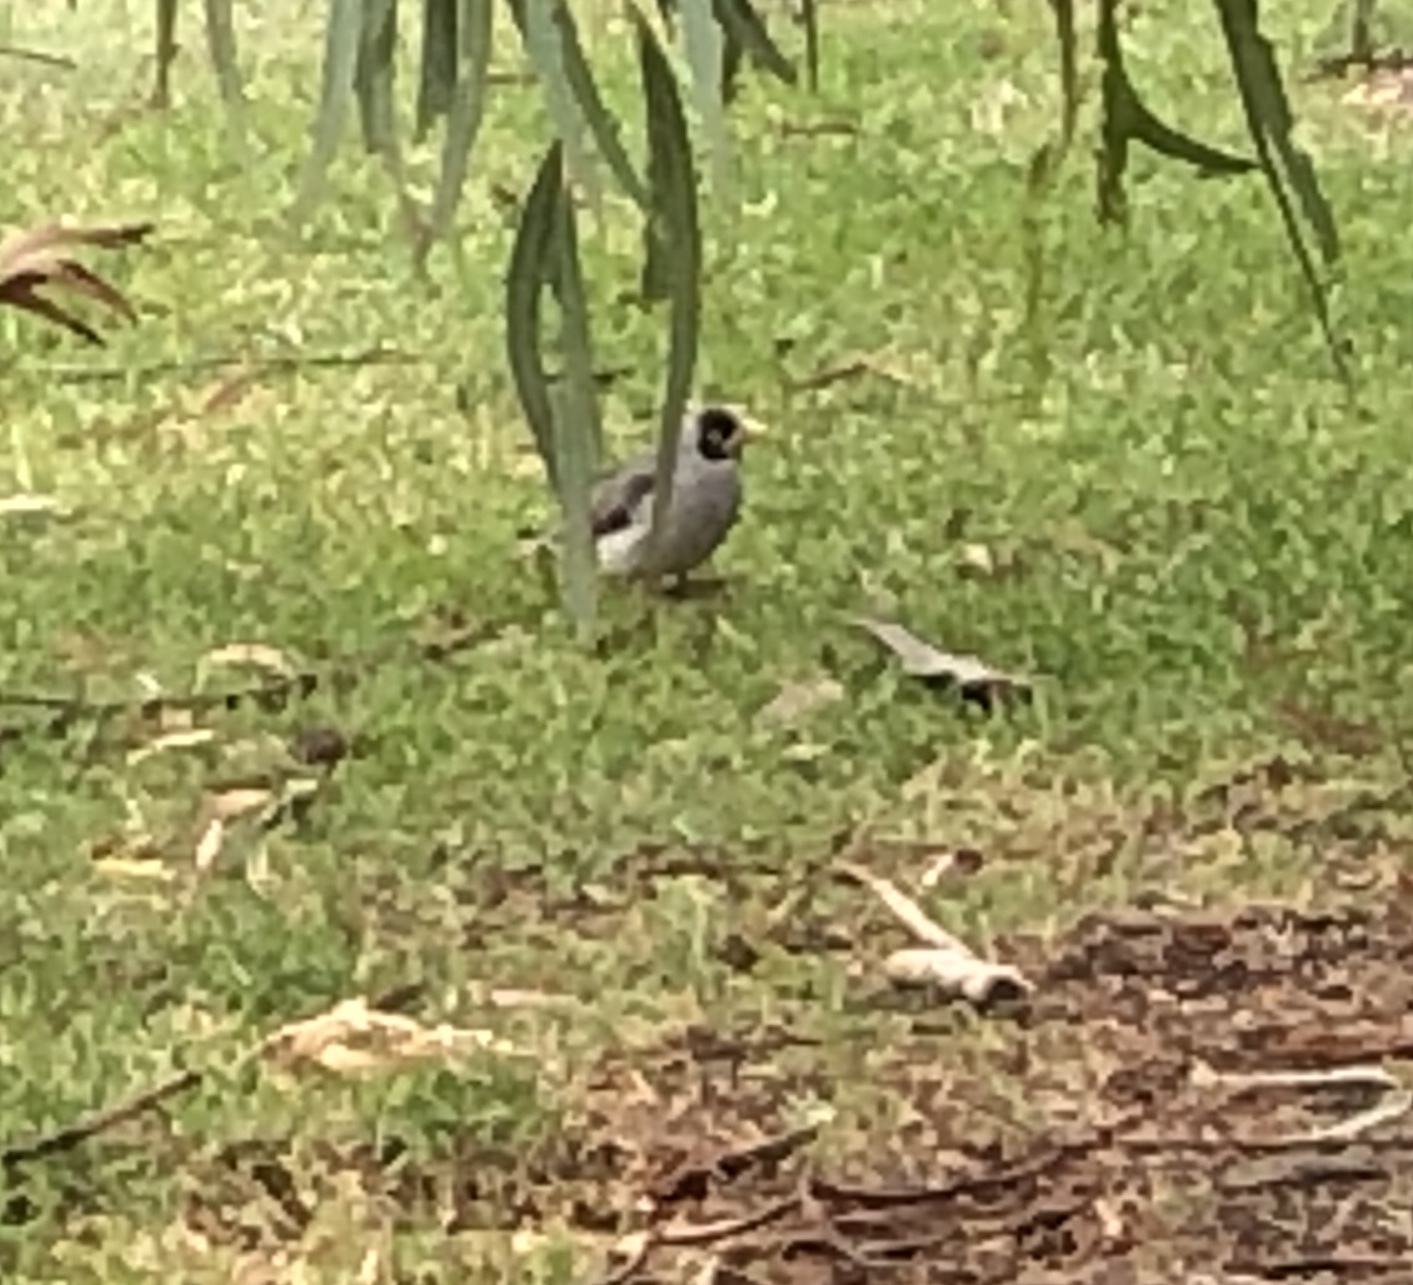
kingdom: Animalia
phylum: Chordata
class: Aves
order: Passeriformes
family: Meliphagidae
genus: Manorina
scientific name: Manorina melanocephala
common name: Noisy miner
